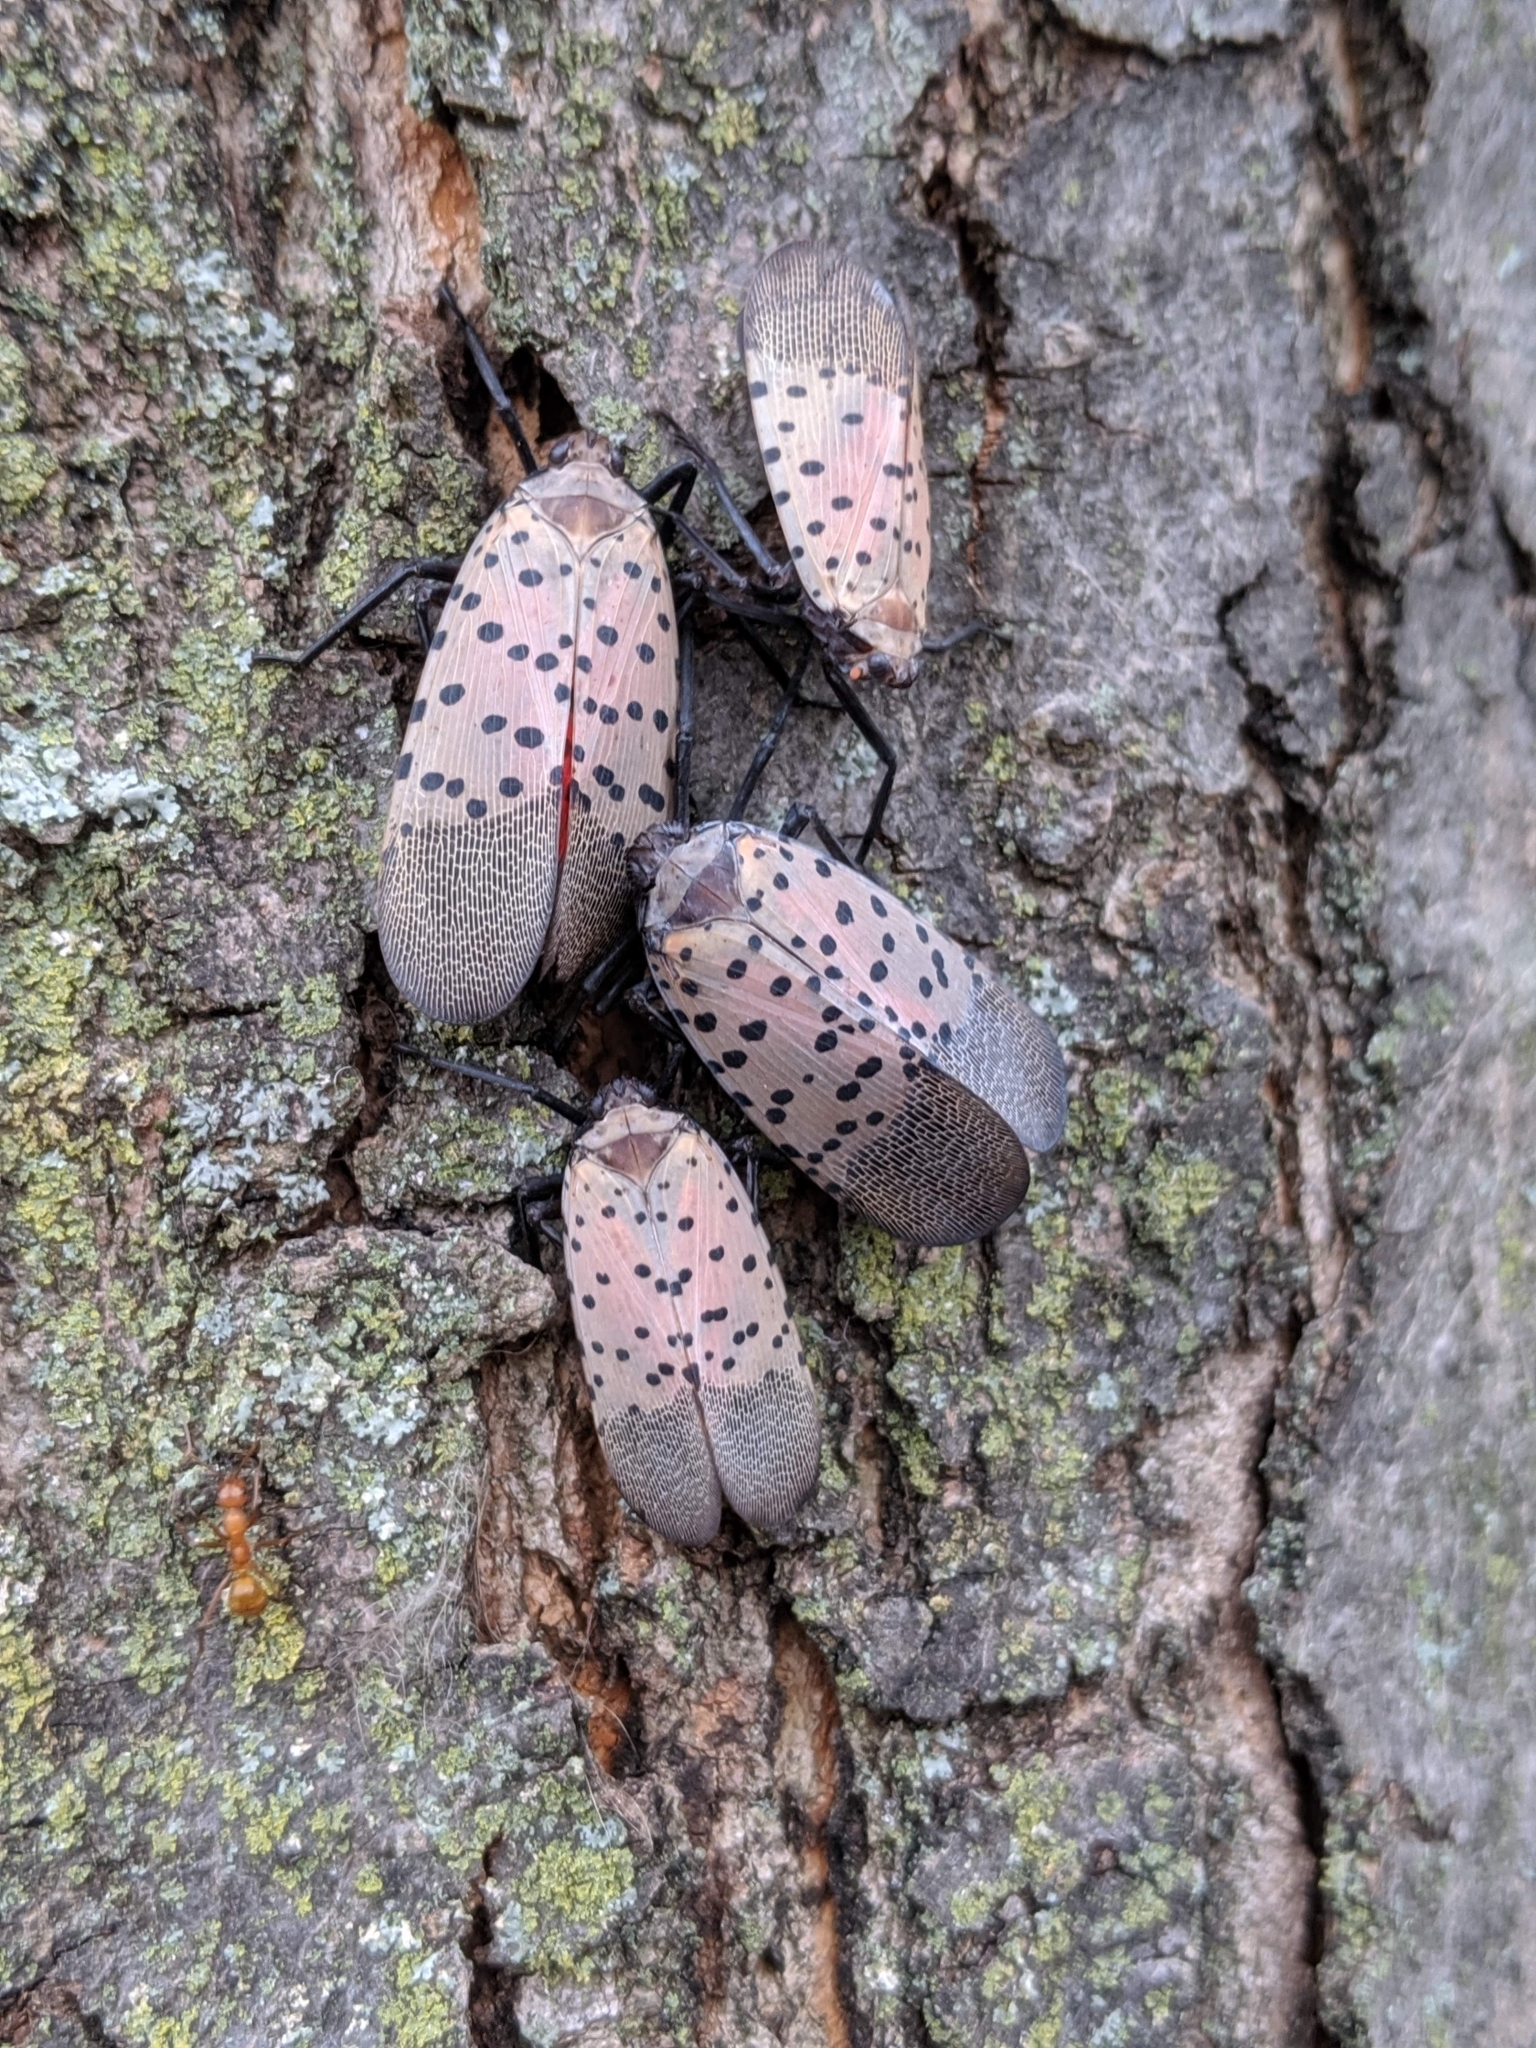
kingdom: Animalia
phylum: Arthropoda
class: Insecta
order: Hemiptera
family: Fulgoridae
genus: Lycorma
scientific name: Lycorma delicatula
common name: Spotted lanternfly
